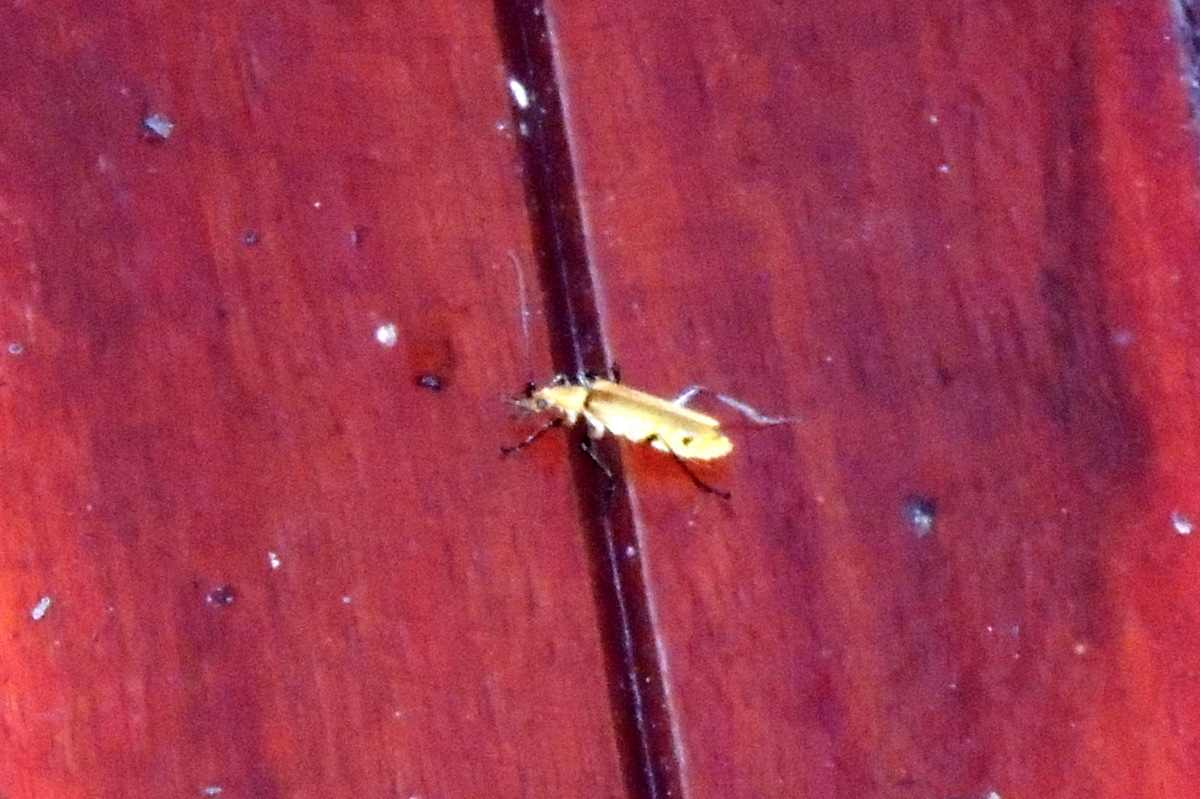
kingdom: Animalia
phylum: Arthropoda
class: Insecta
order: Coleoptera
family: Cantharidae
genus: Chauliognathus
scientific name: Chauliognathus
